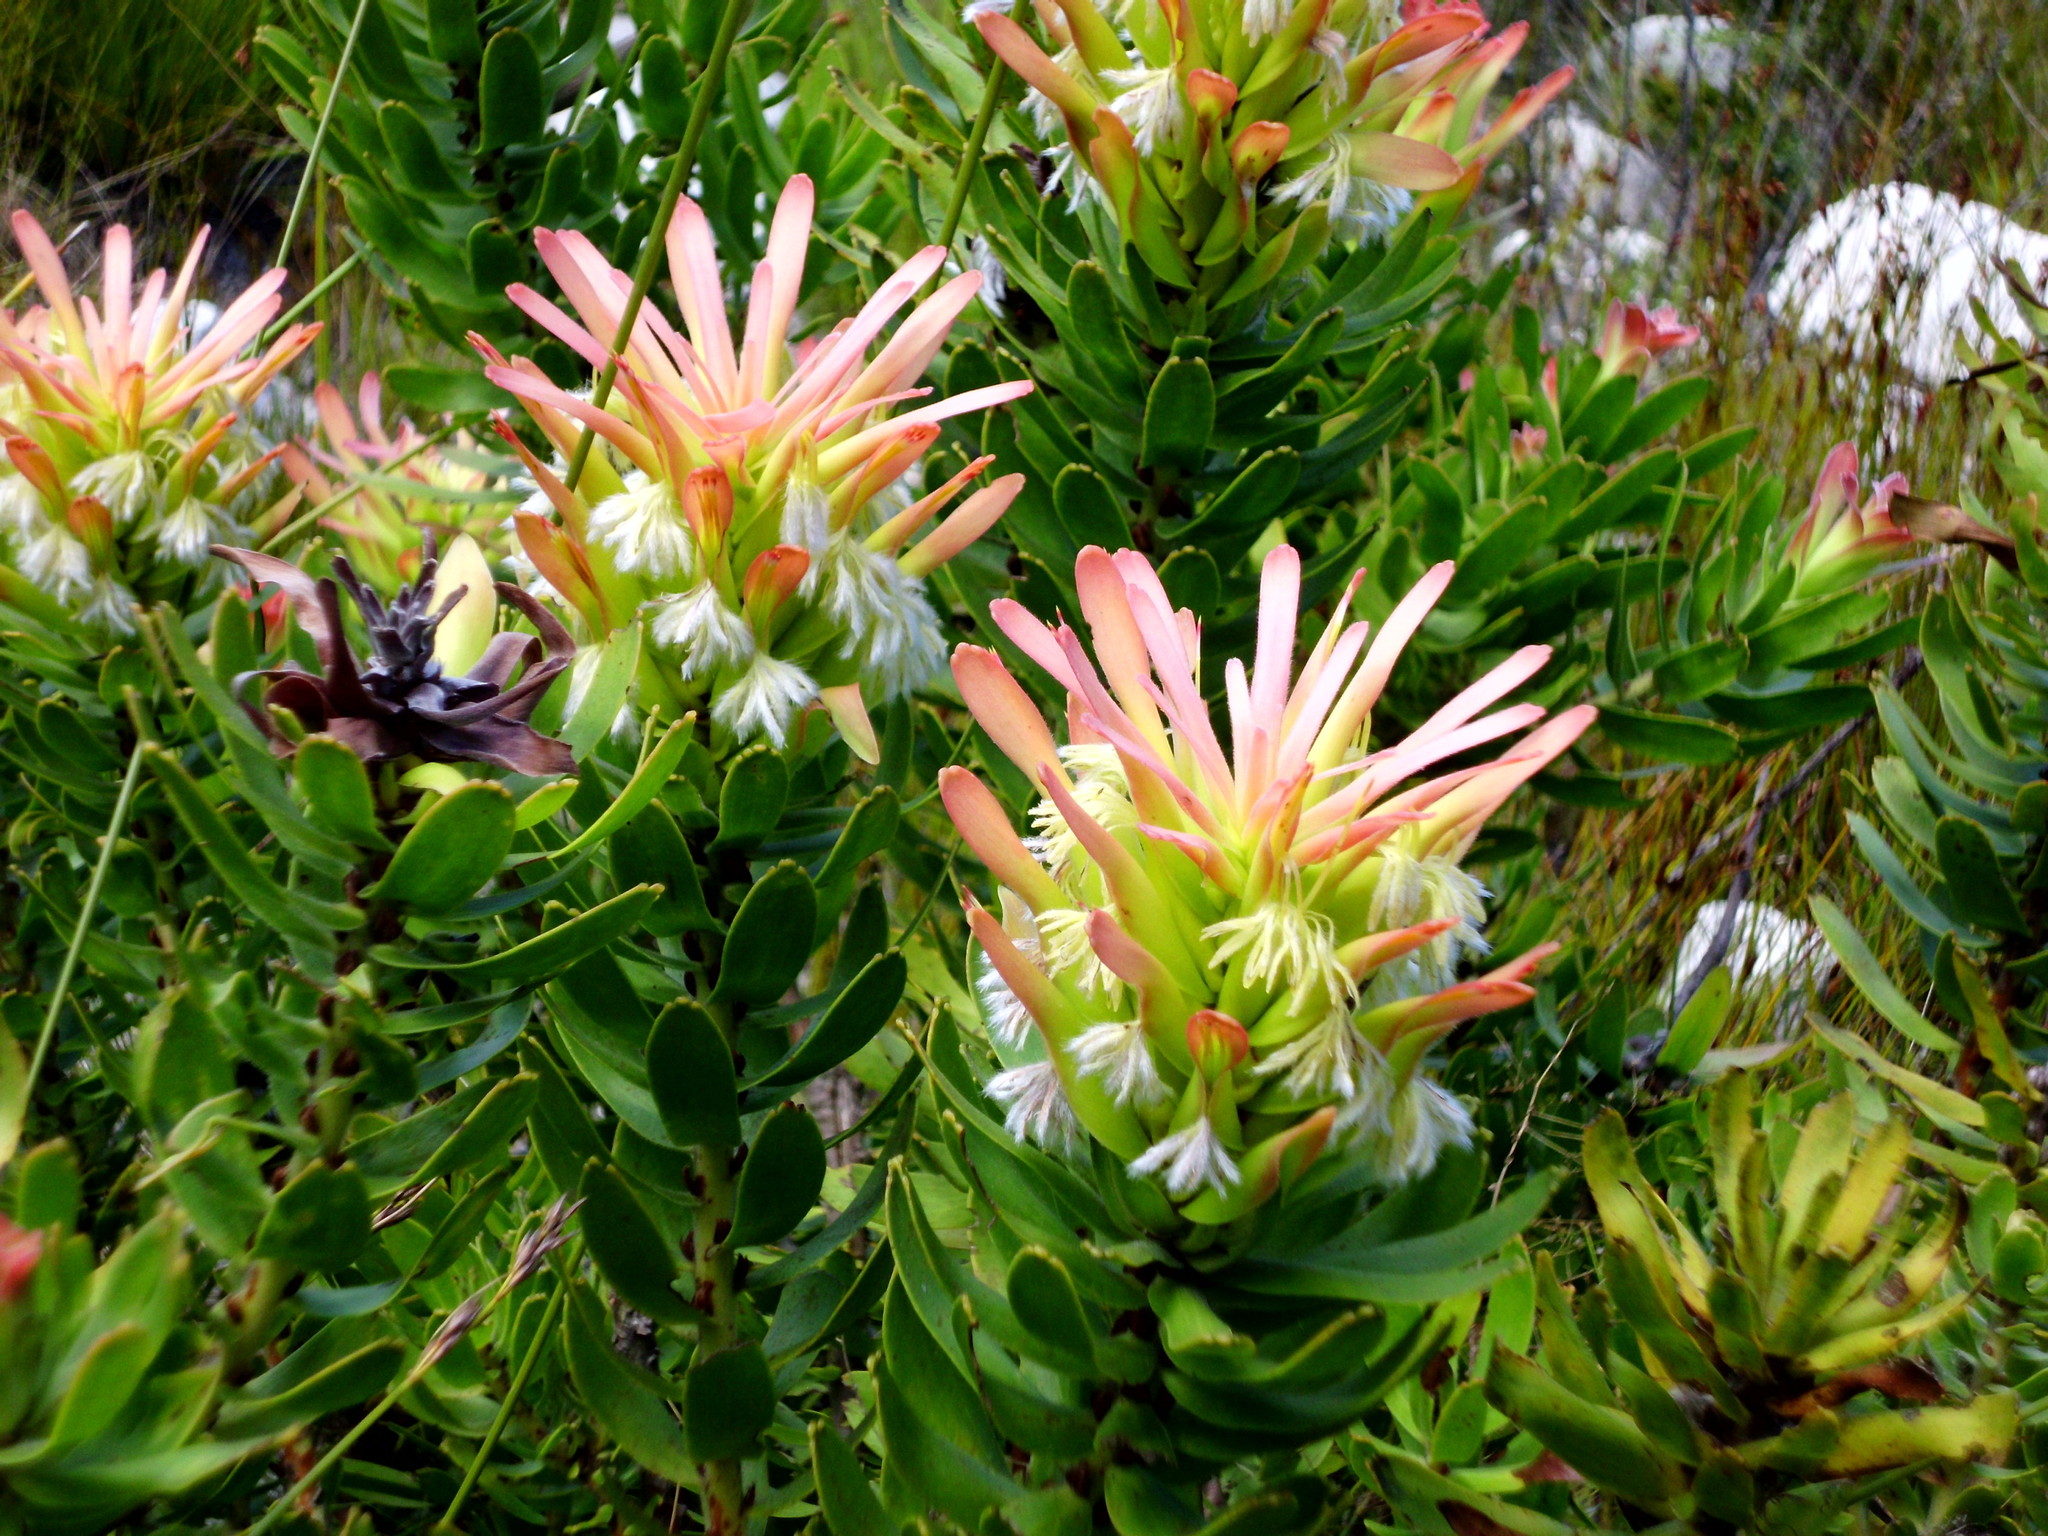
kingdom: Plantae
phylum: Tracheophyta
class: Magnoliopsida
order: Proteales
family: Proteaceae
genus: Mimetes
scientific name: Mimetes cucullatus
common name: Common pagoda
